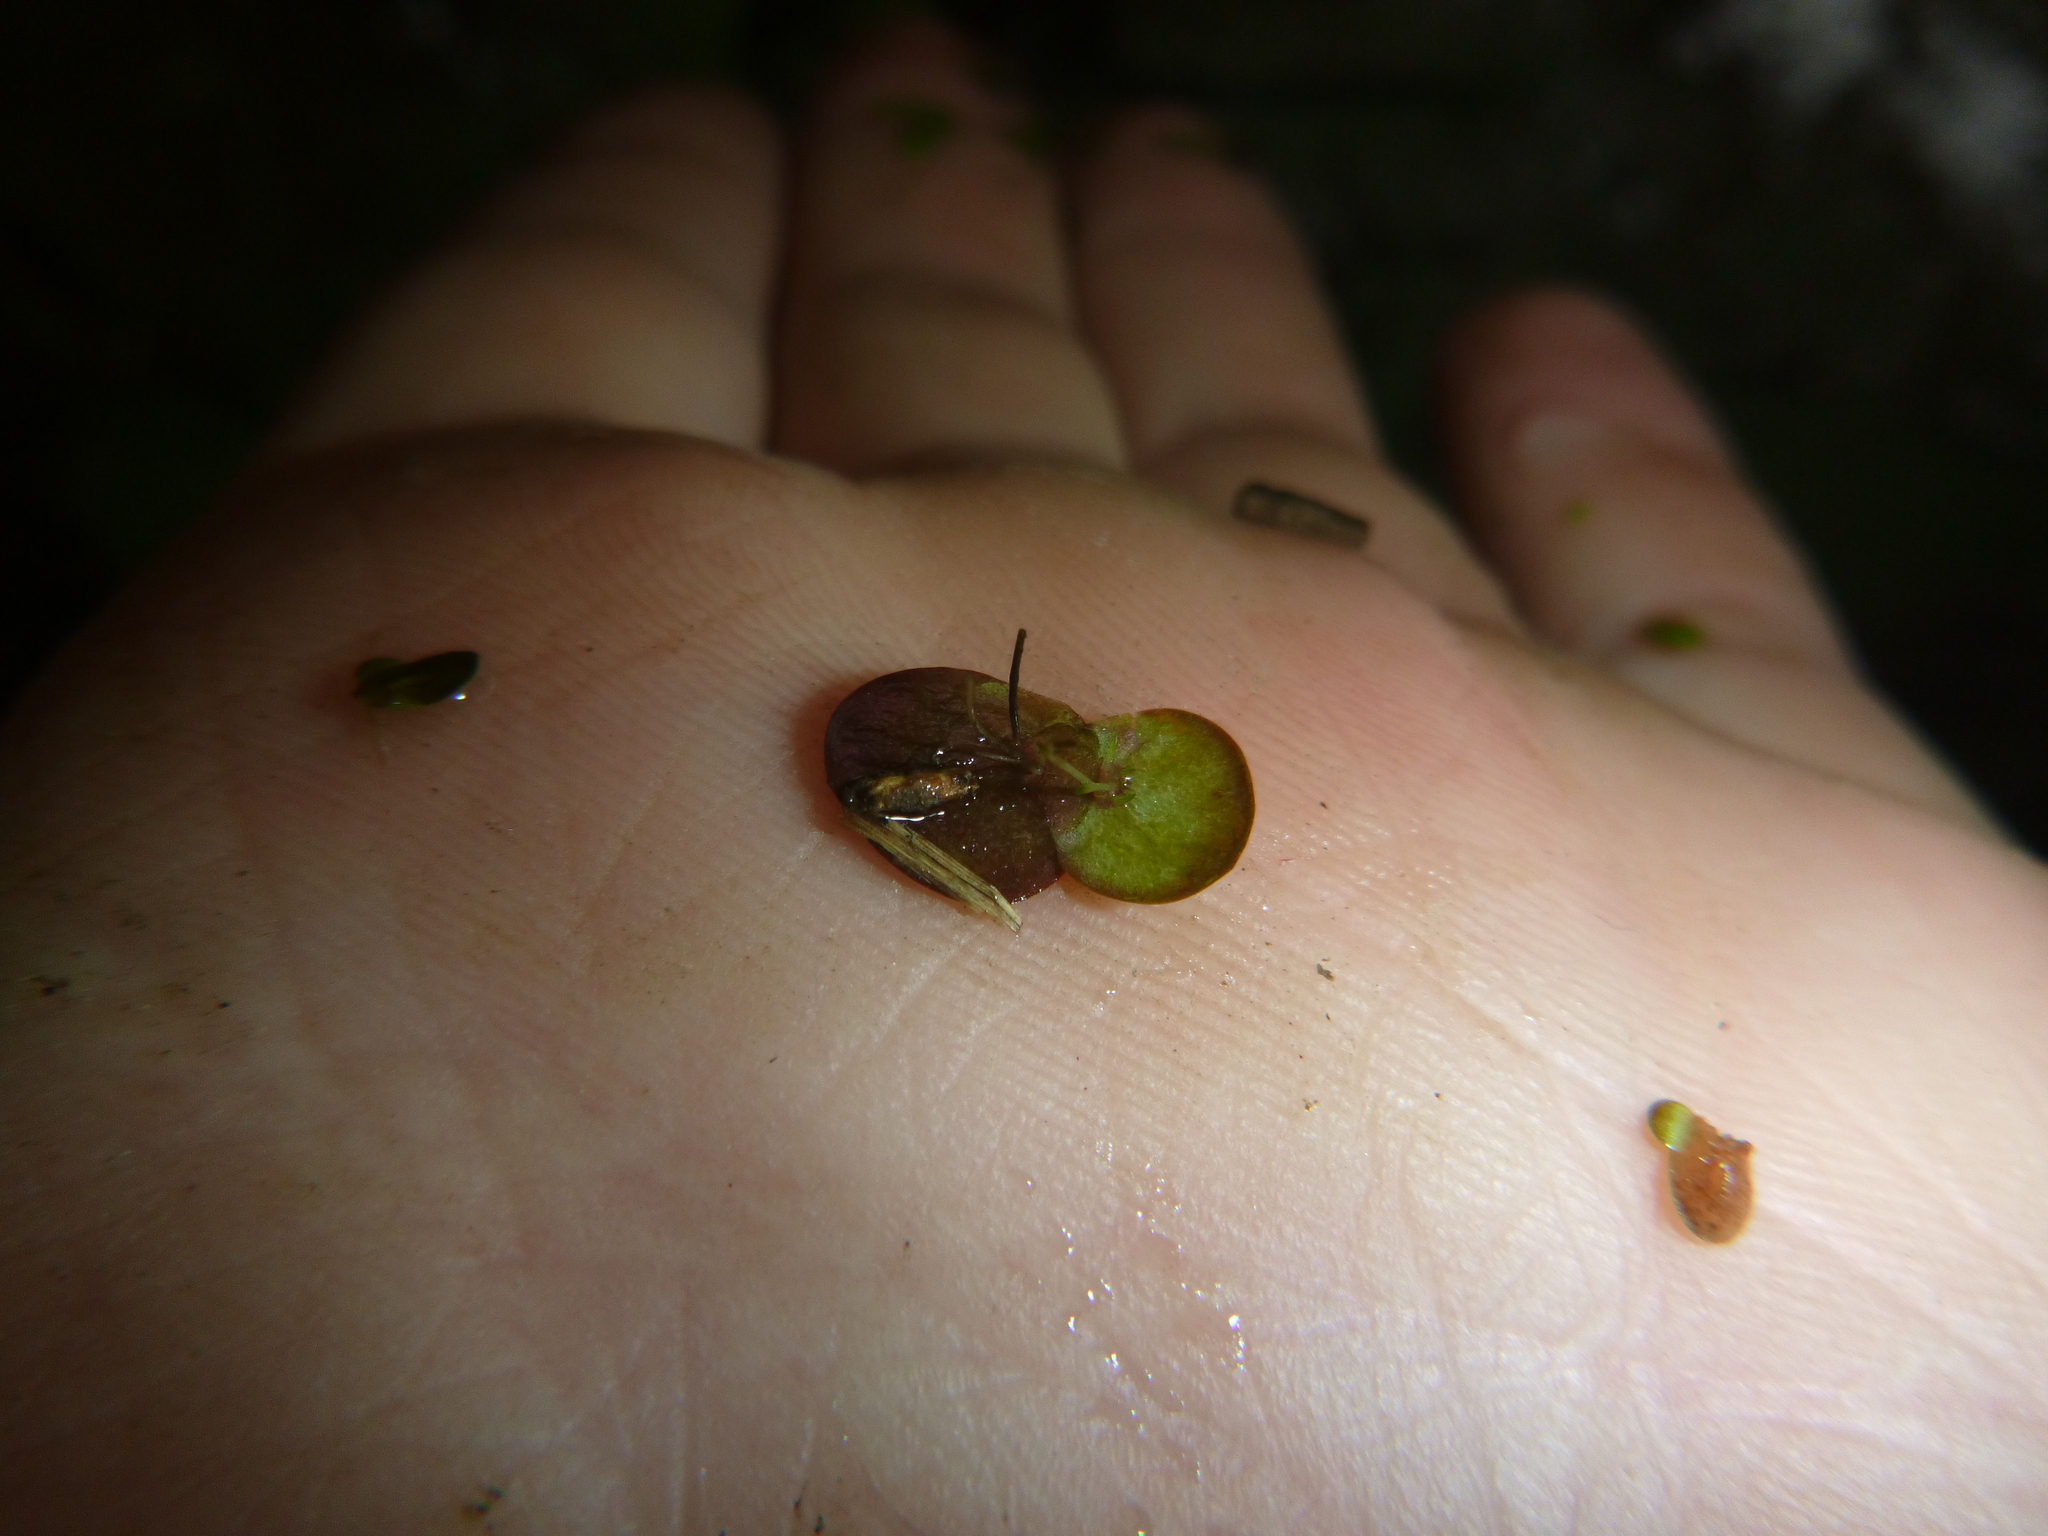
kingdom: Plantae
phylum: Tracheophyta
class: Liliopsida
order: Alismatales
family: Araceae
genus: Spirodela
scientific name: Spirodela polyrhiza
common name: Great duckweed
